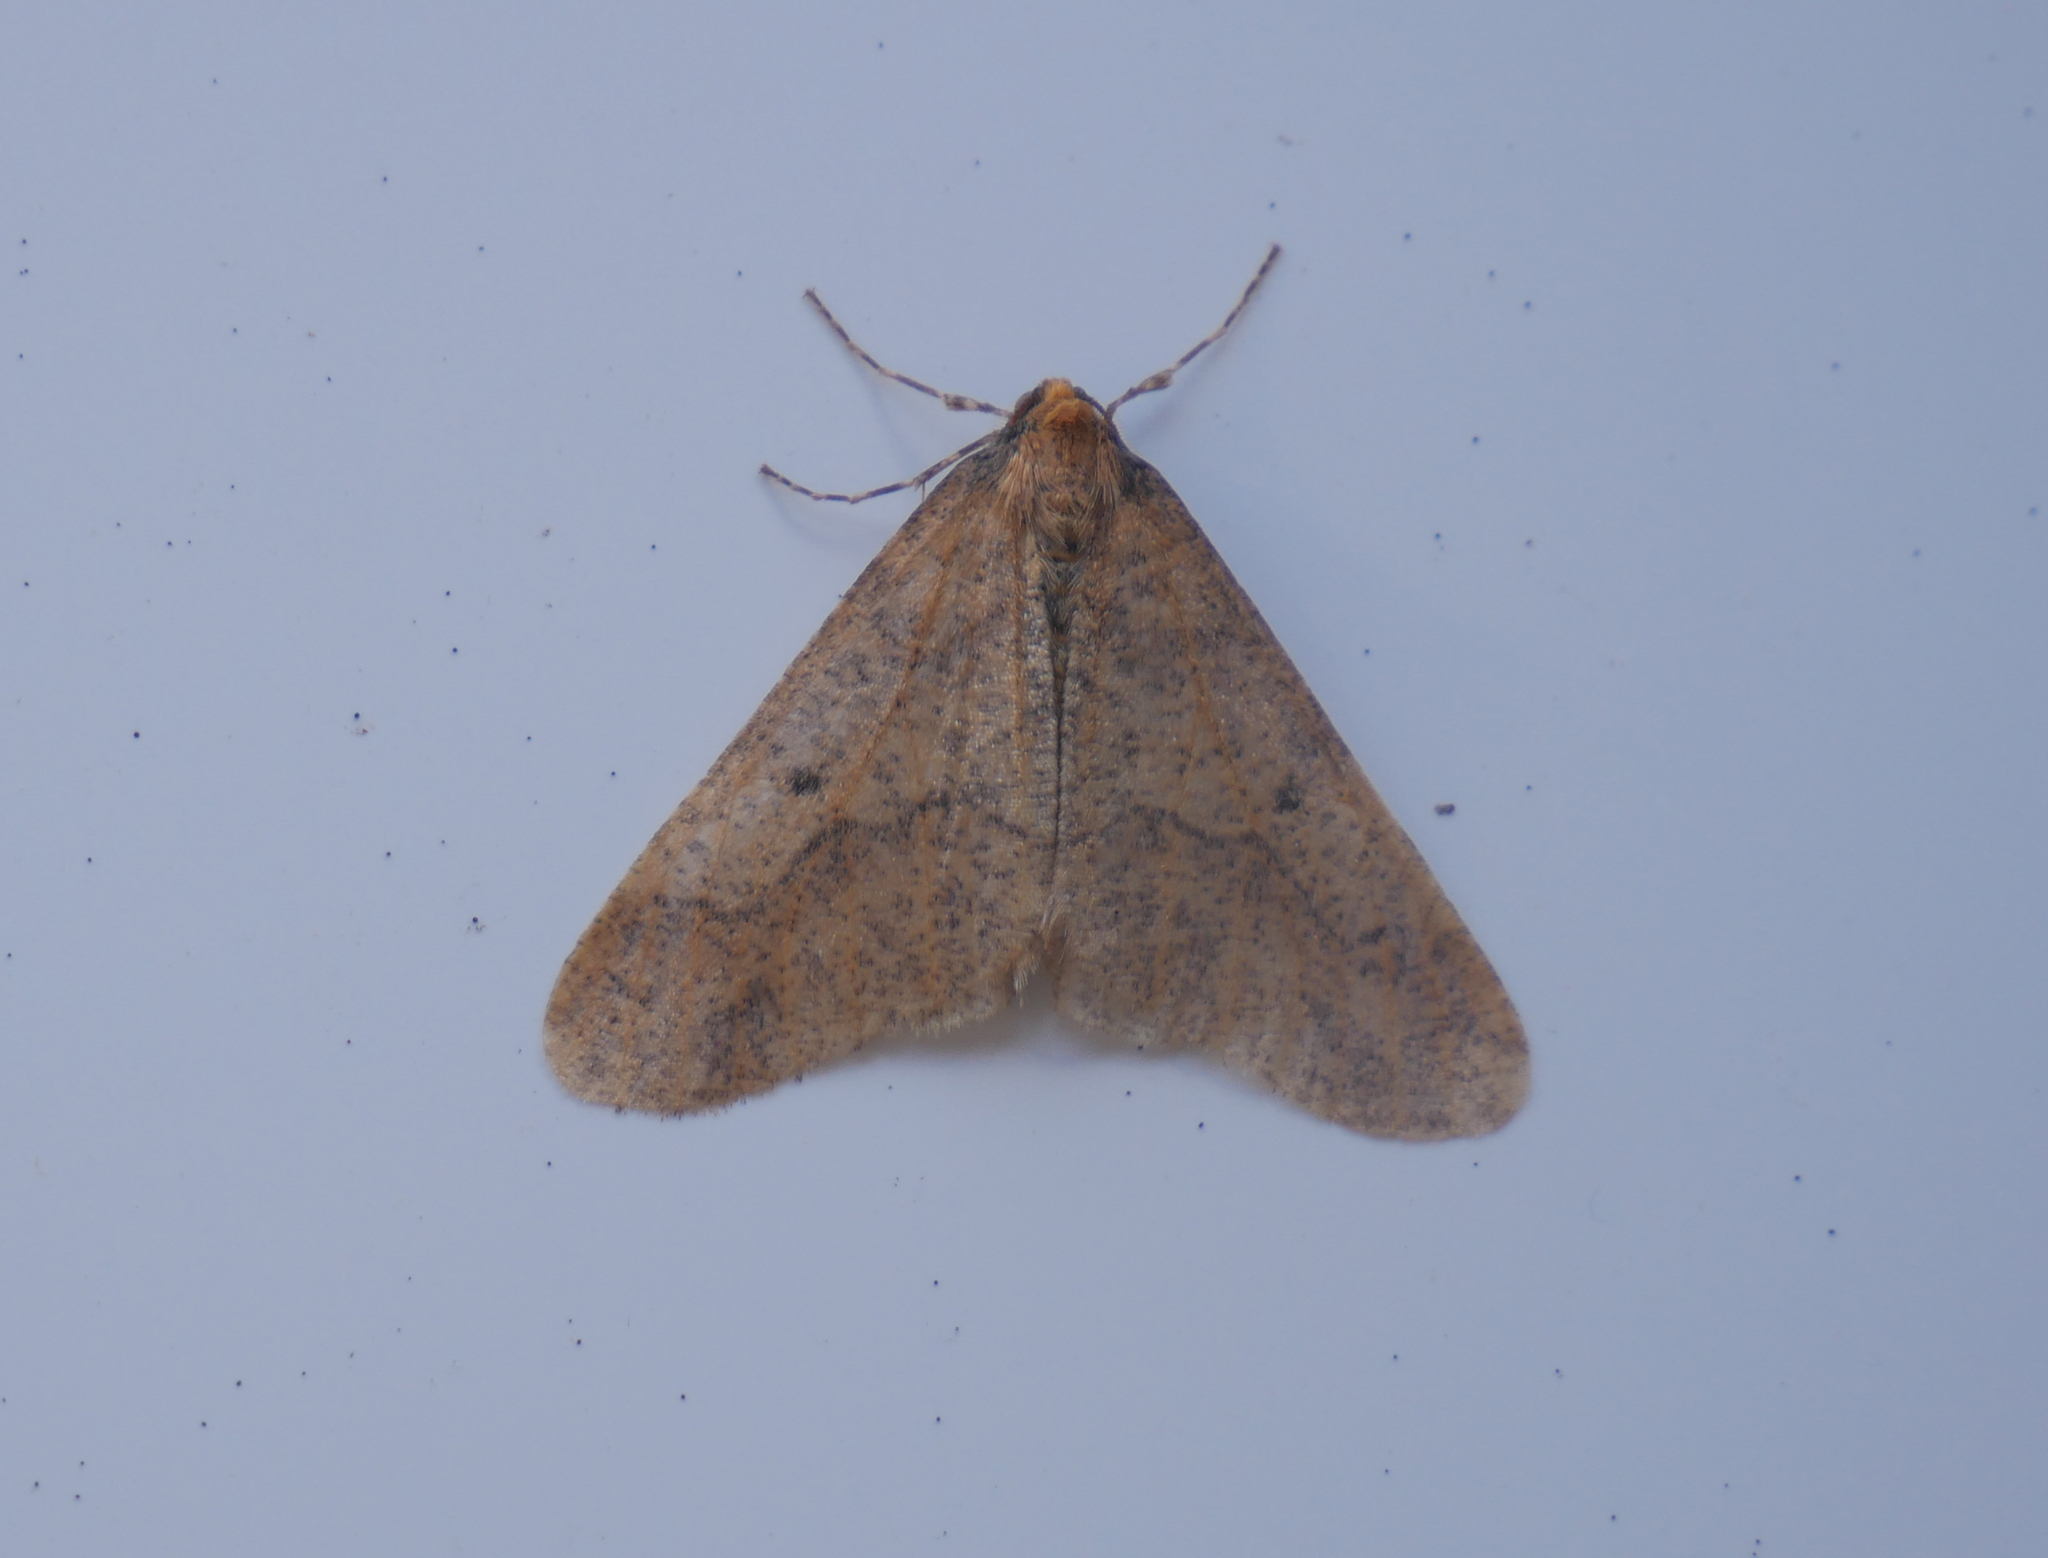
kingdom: Animalia
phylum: Arthropoda
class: Insecta
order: Lepidoptera
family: Geometridae
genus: Erannis
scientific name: Erannis defoliaria
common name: Mottled umber
